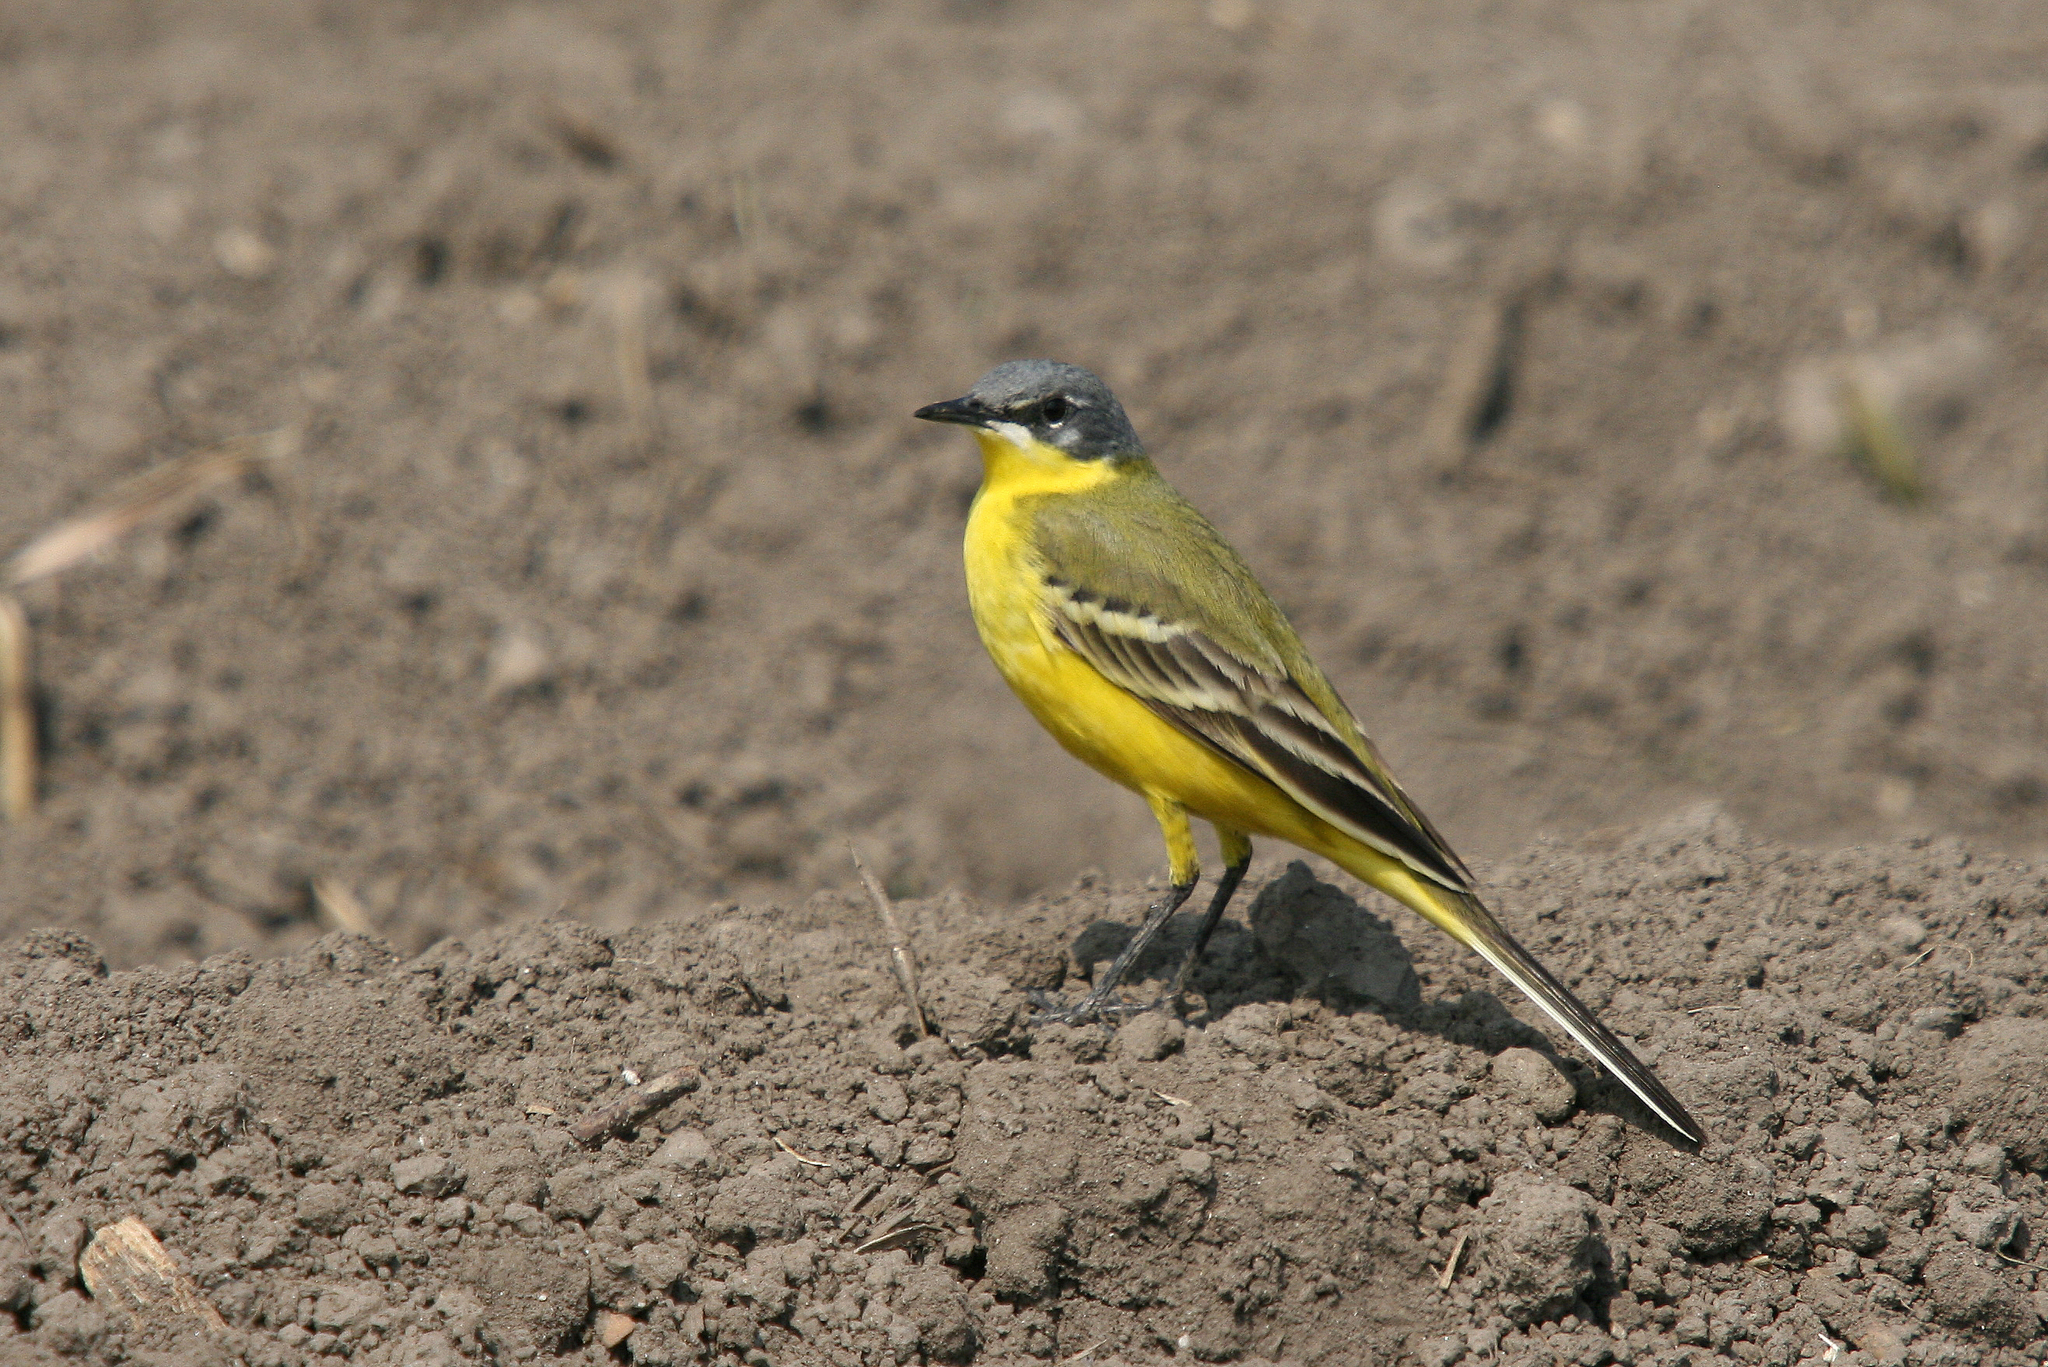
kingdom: Animalia
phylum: Chordata
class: Aves
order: Passeriformes
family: Motacillidae
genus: Motacilla
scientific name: Motacilla flava
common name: Western yellow wagtail
